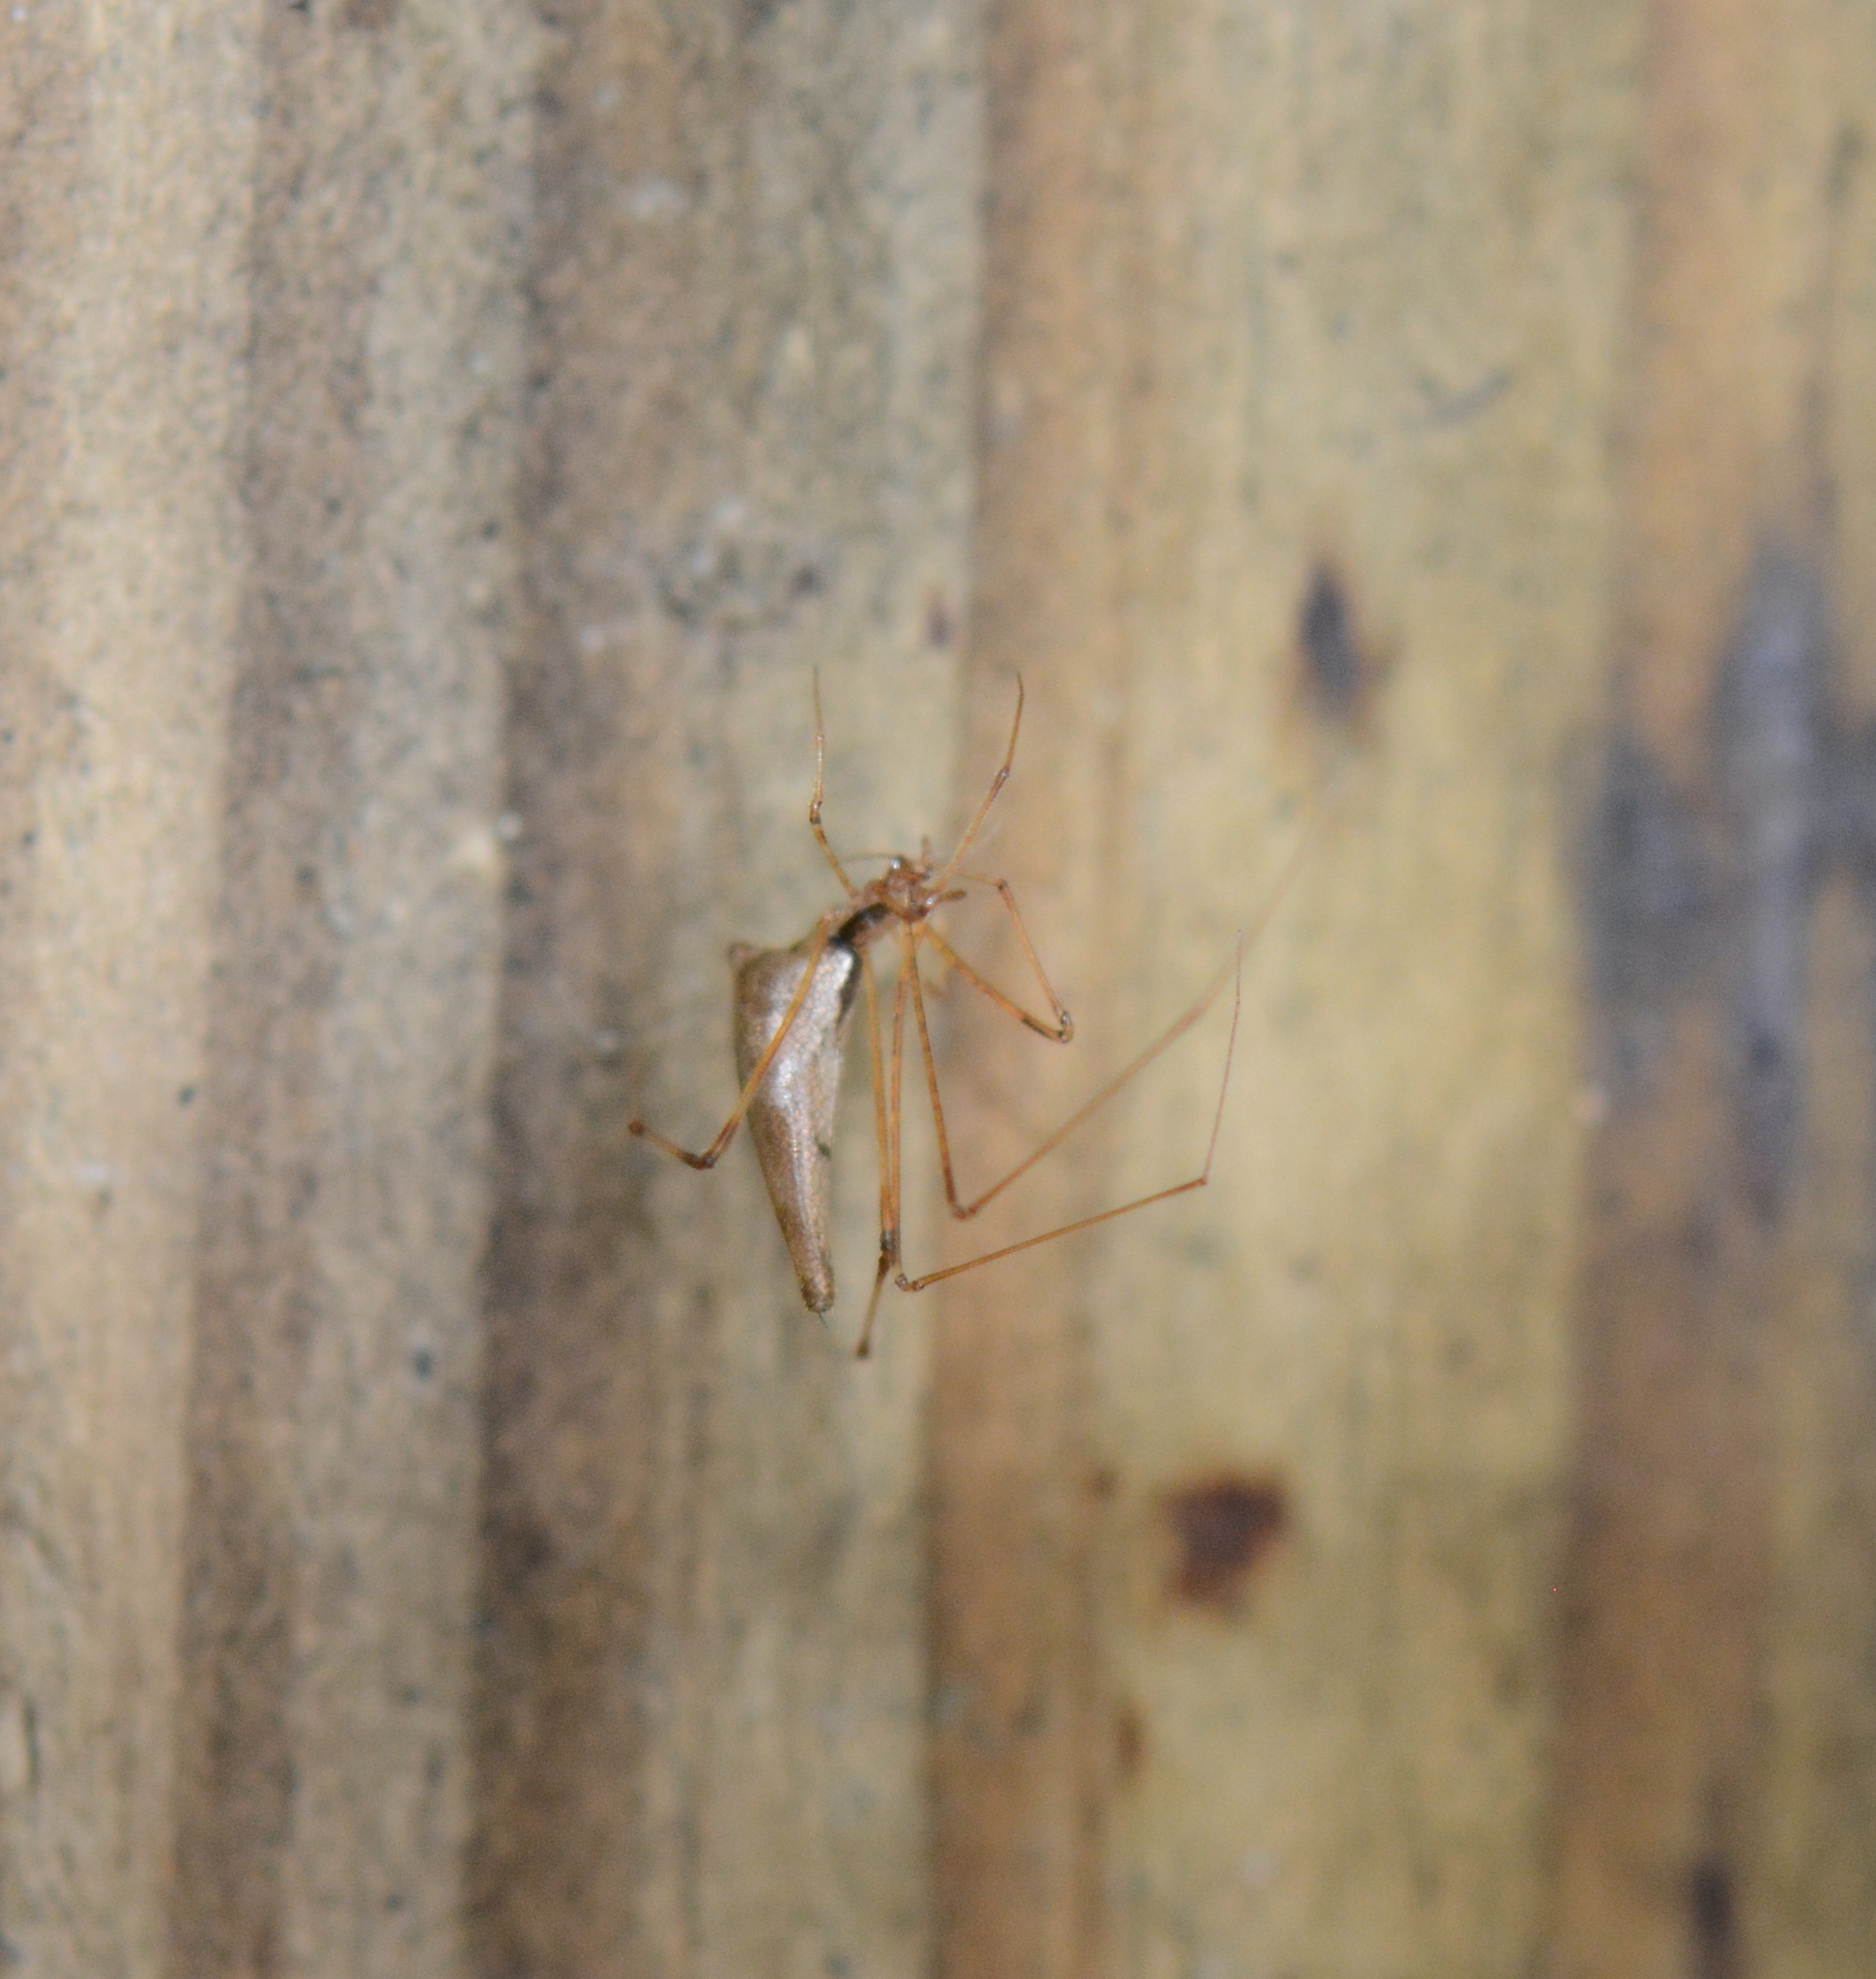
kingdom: Animalia
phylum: Arthropoda
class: Arachnida
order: Araneae
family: Theridiidae
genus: Rhomphaea
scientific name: Rhomphaea projiciens
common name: Cobweb spiders
